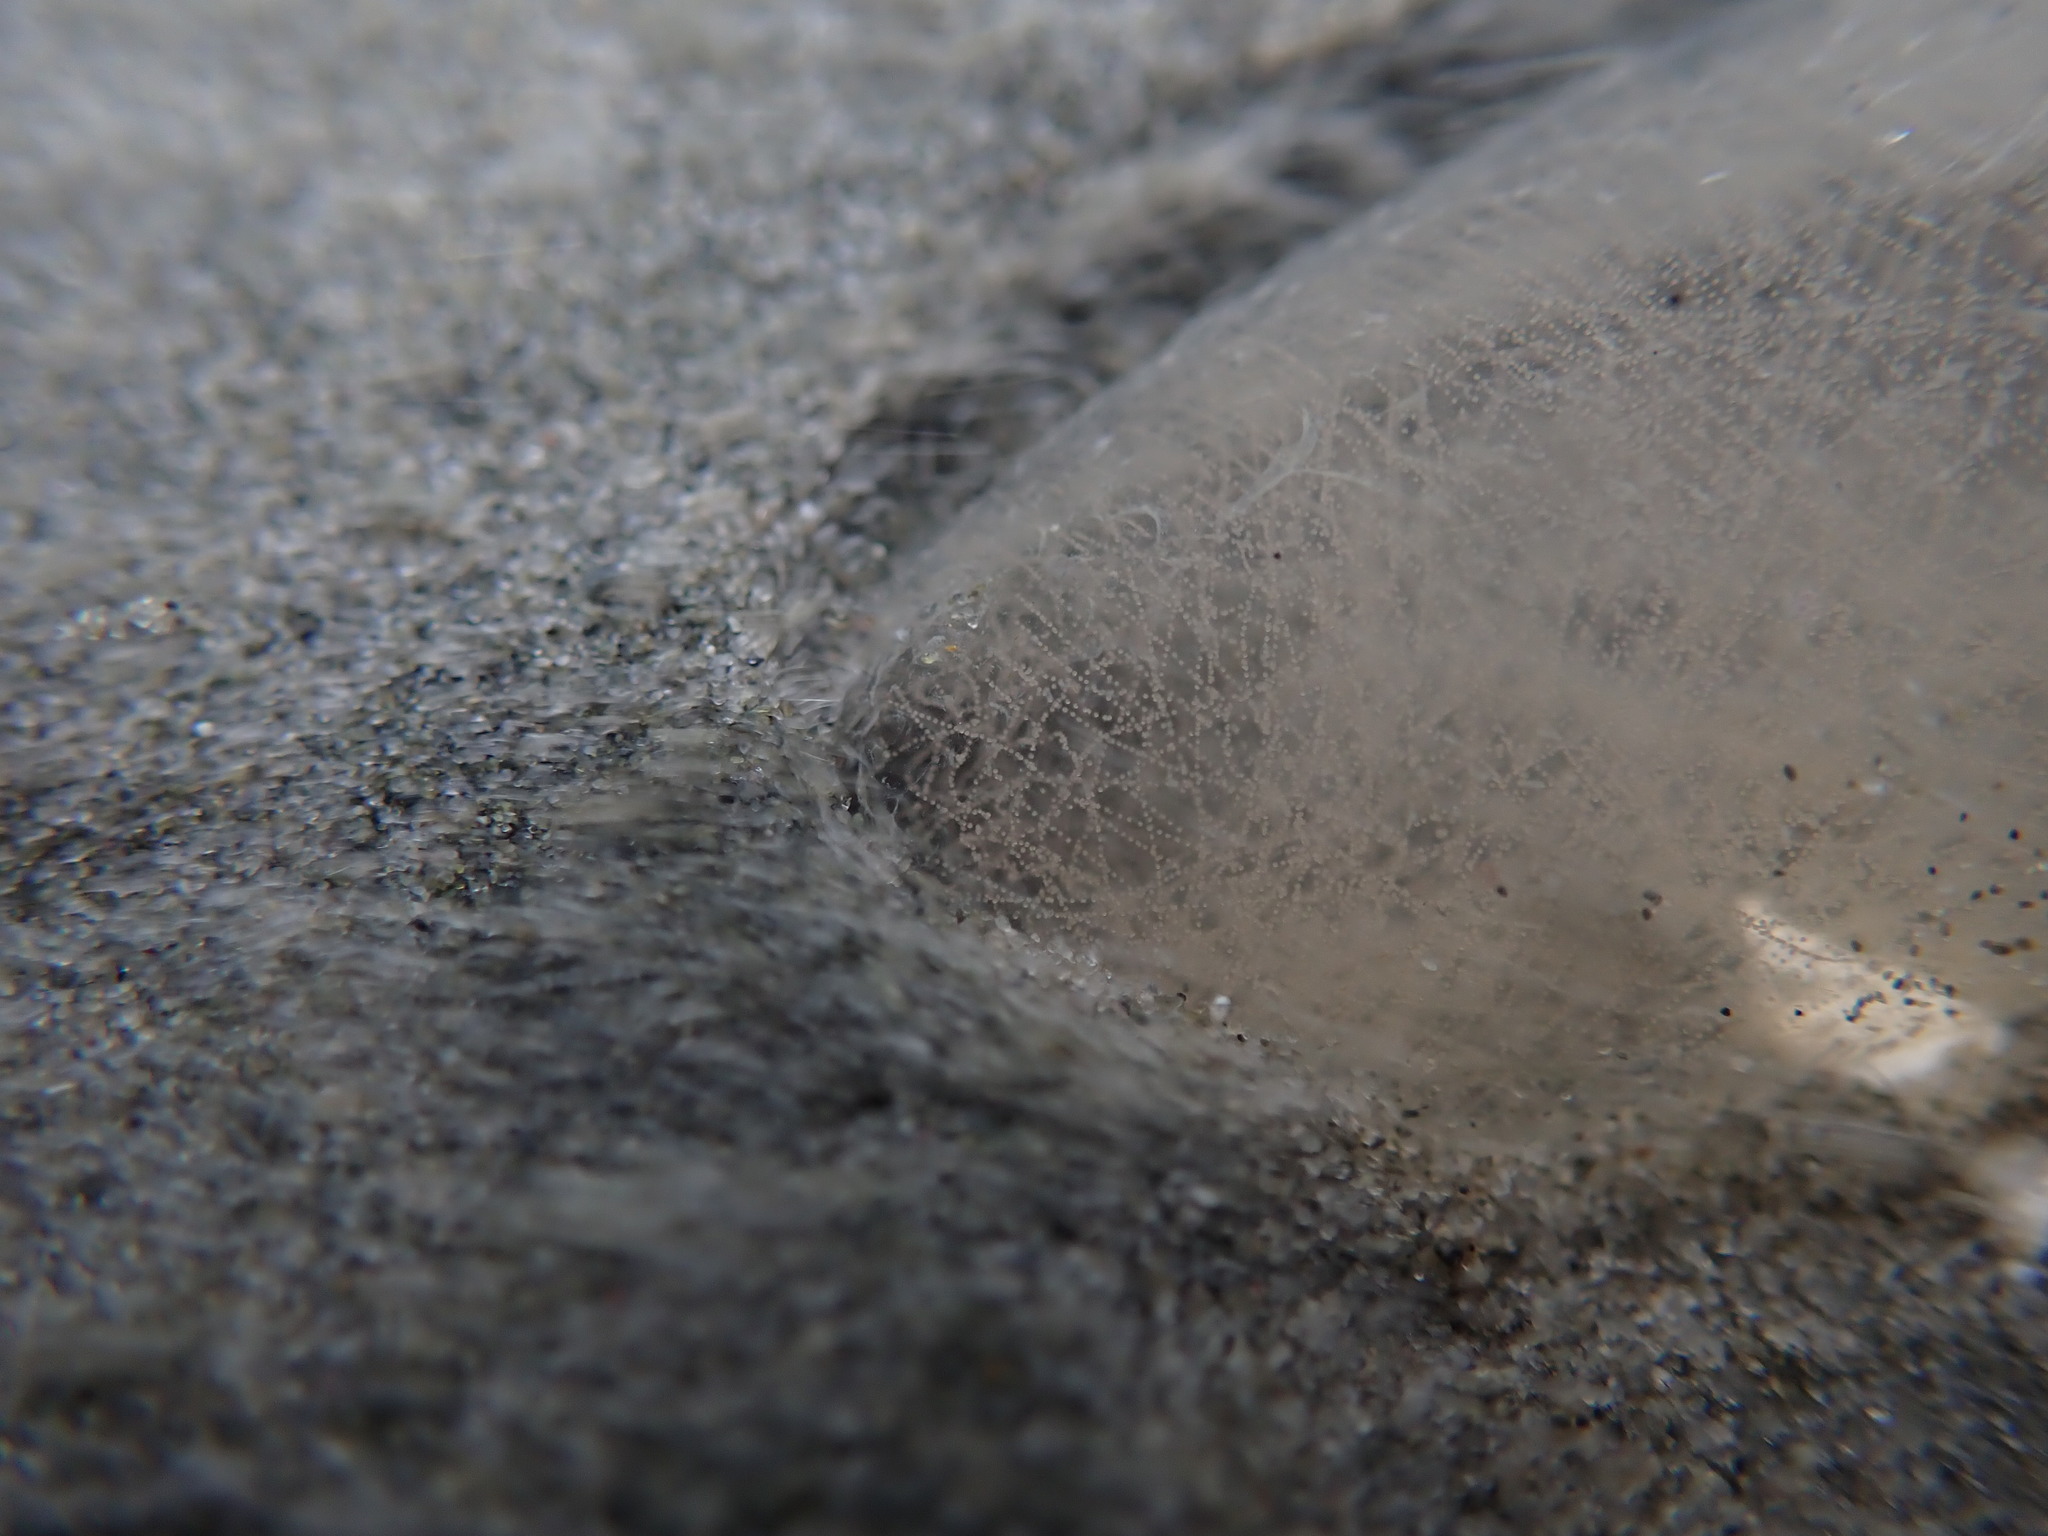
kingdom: Animalia
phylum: Mollusca
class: Gastropoda
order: Cephalaspidea
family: Philinidae
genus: Philine
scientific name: Philine
